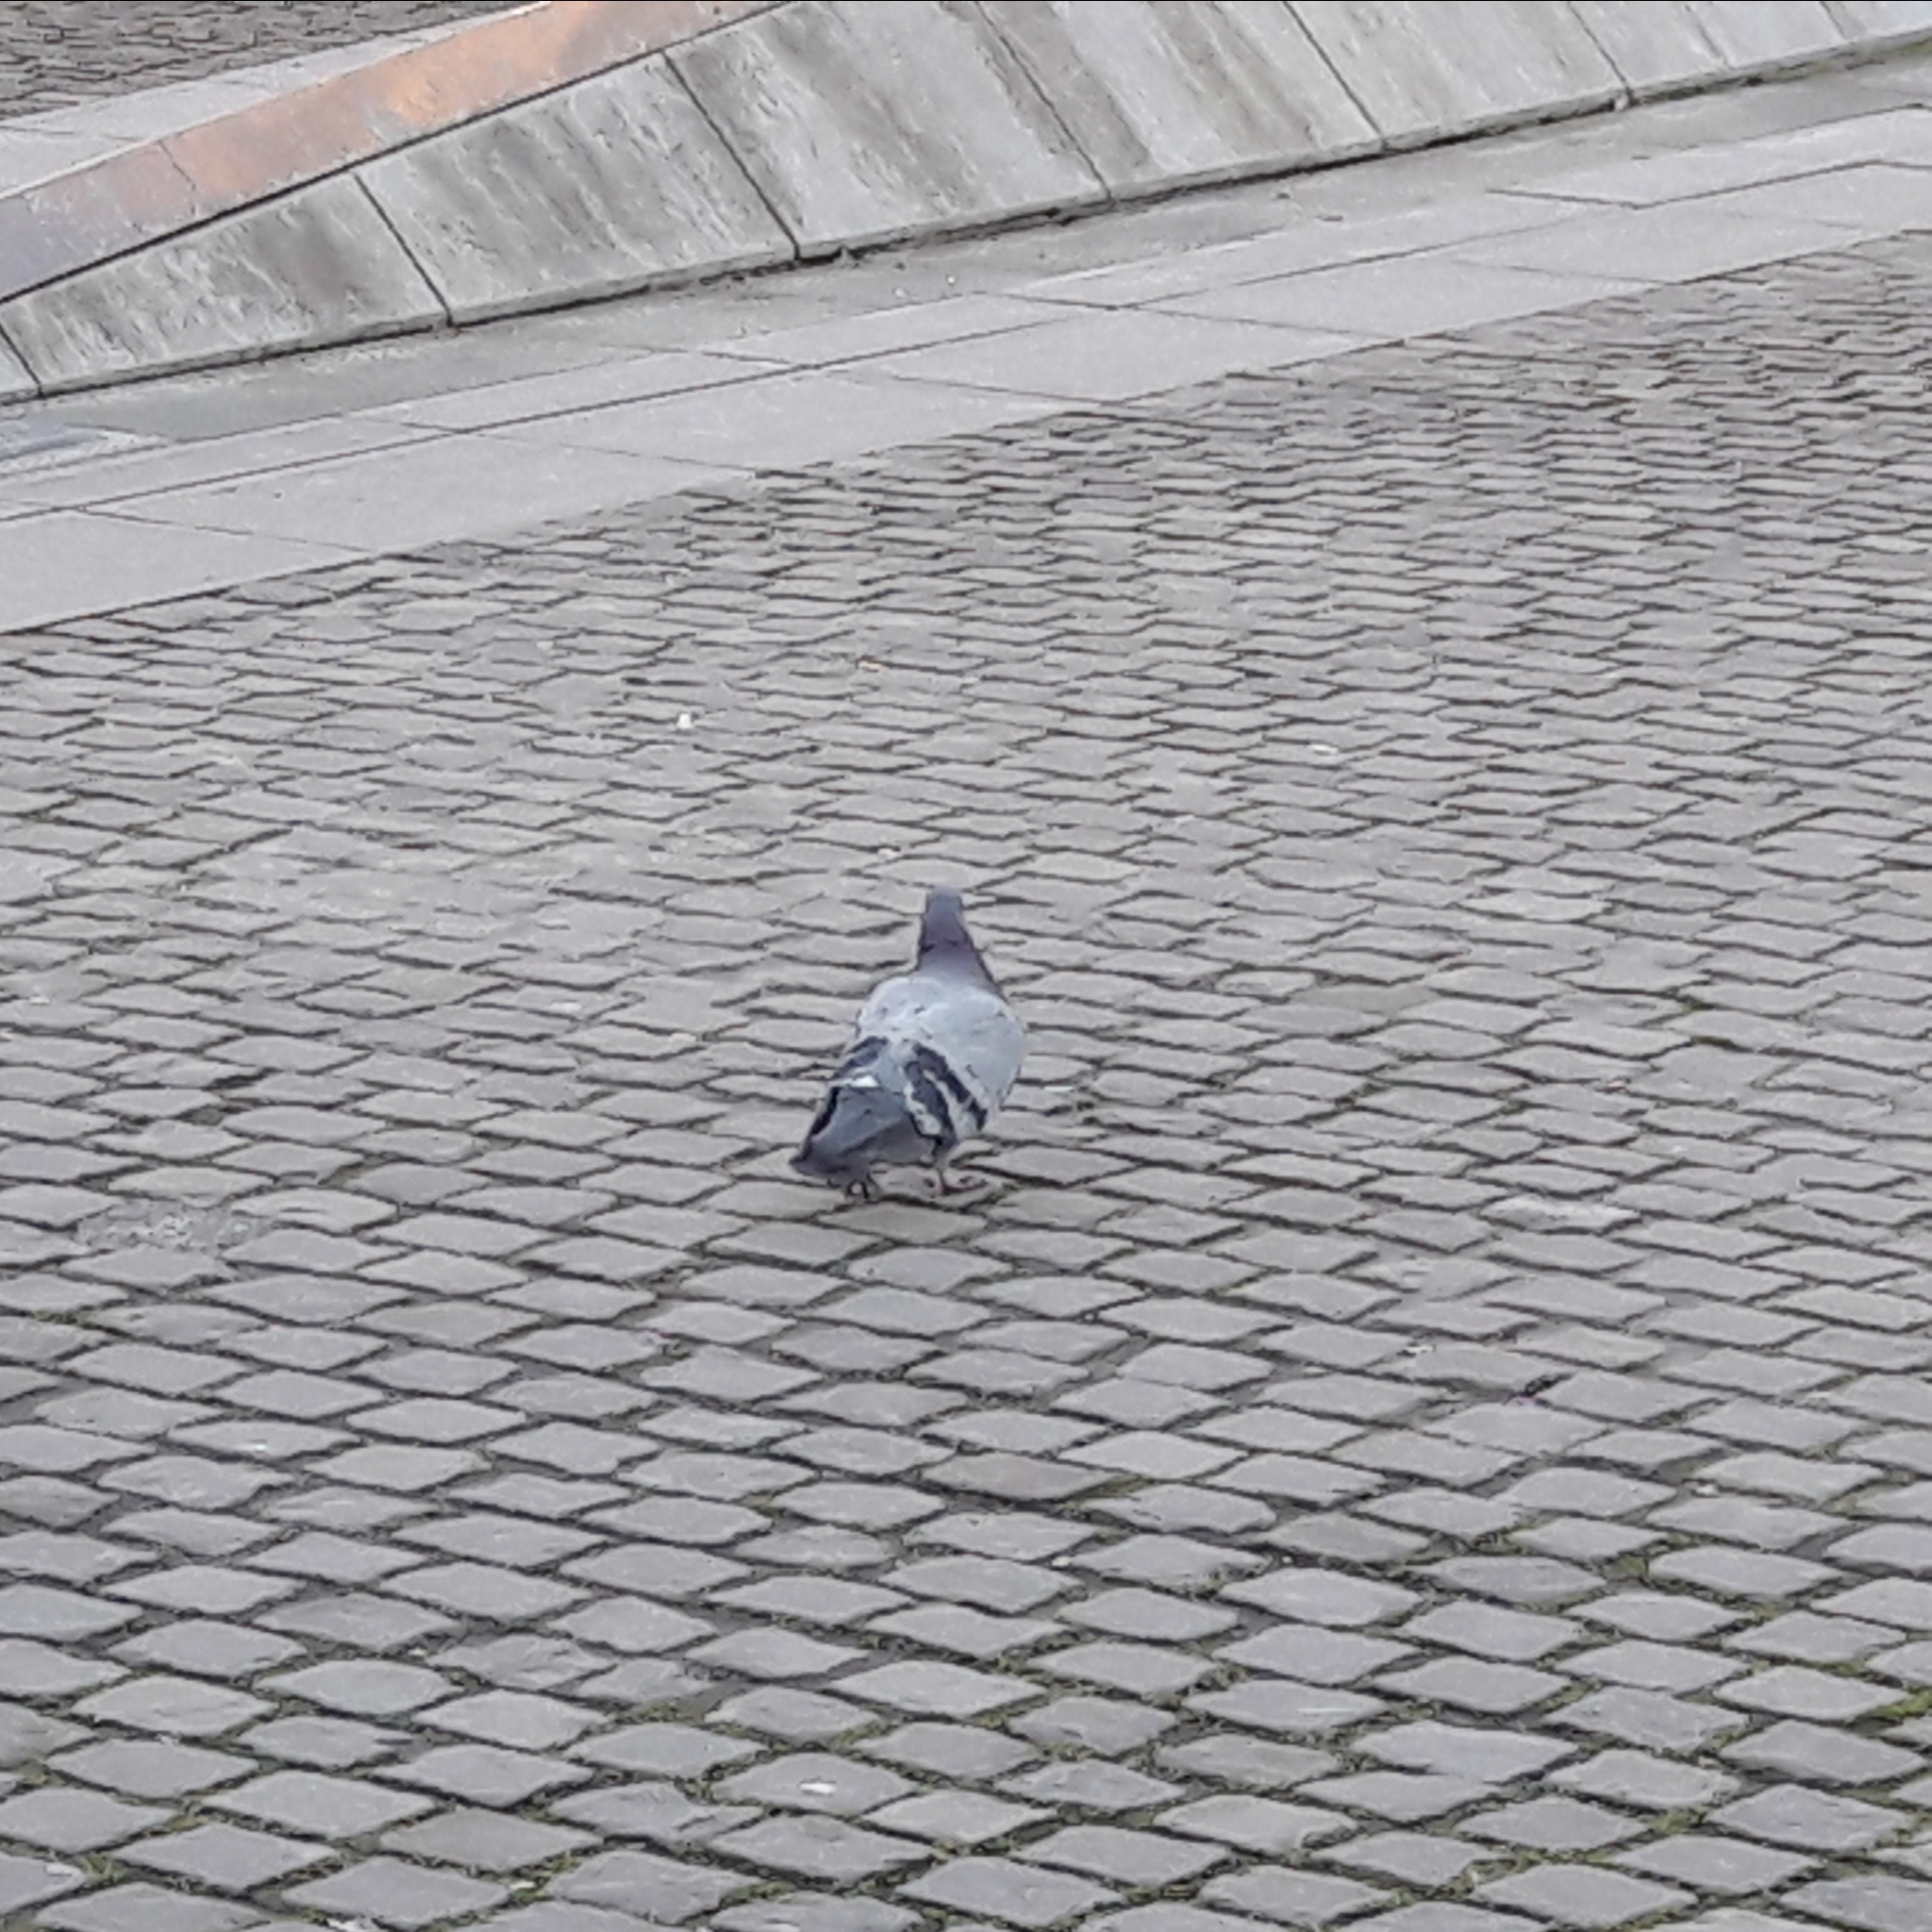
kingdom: Animalia
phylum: Chordata
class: Aves
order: Columbiformes
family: Columbidae
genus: Columba
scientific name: Columba livia
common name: Rock pigeon
